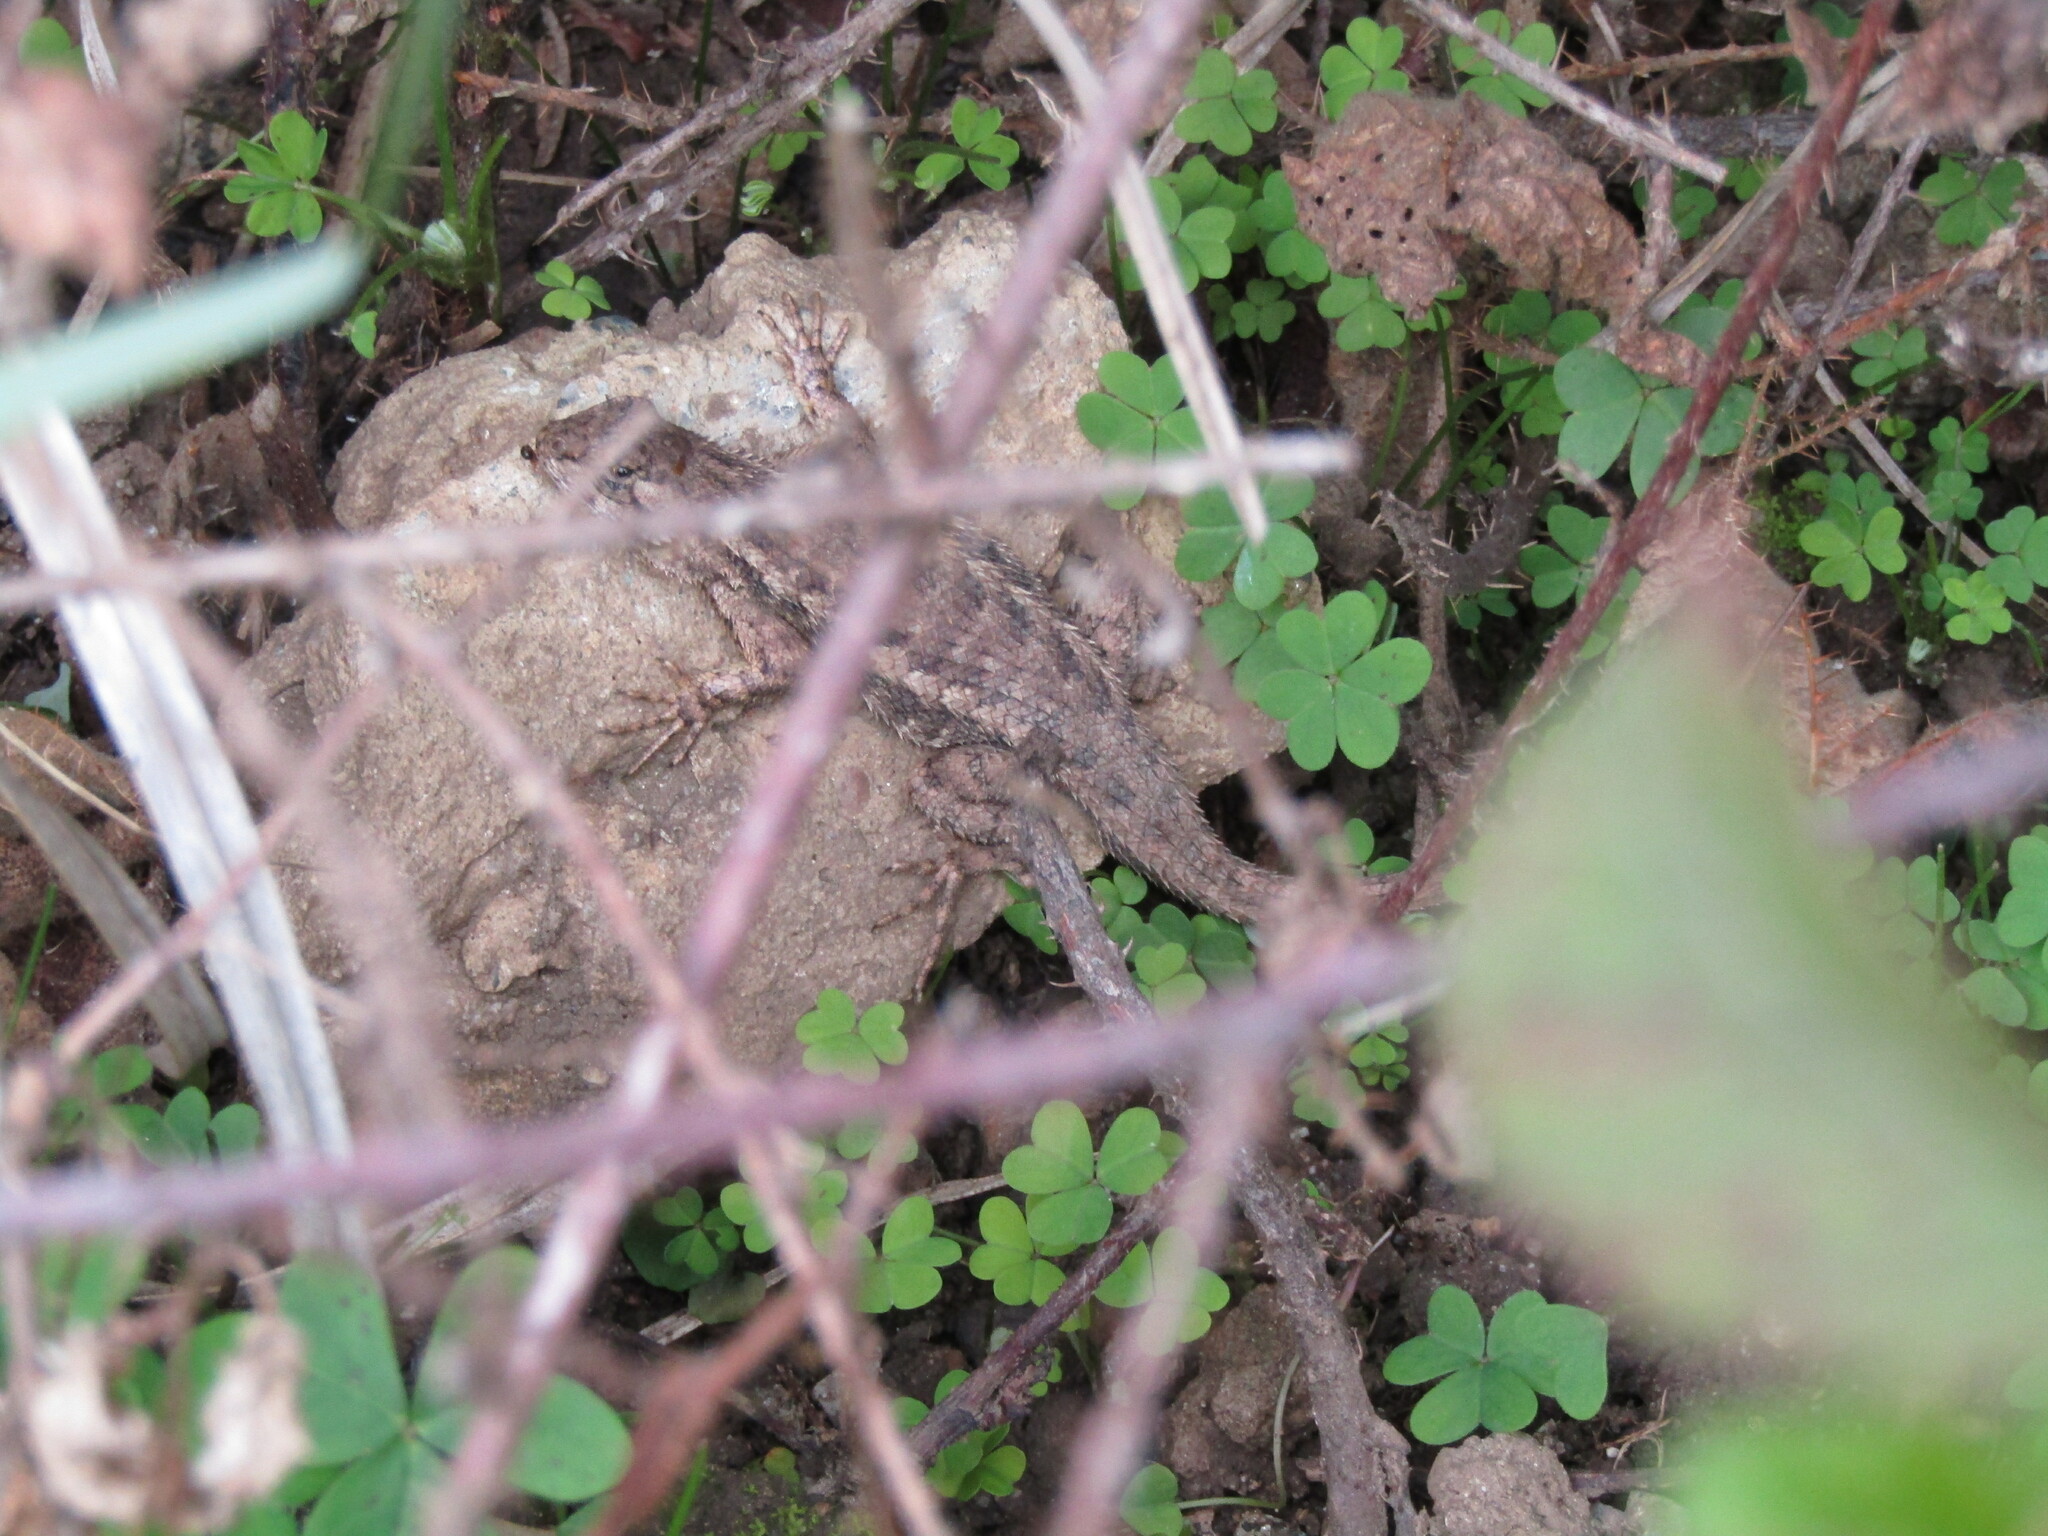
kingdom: Animalia
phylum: Chordata
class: Squamata
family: Phrynosomatidae
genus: Sceloporus
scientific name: Sceloporus occidentalis
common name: Western fence lizard
